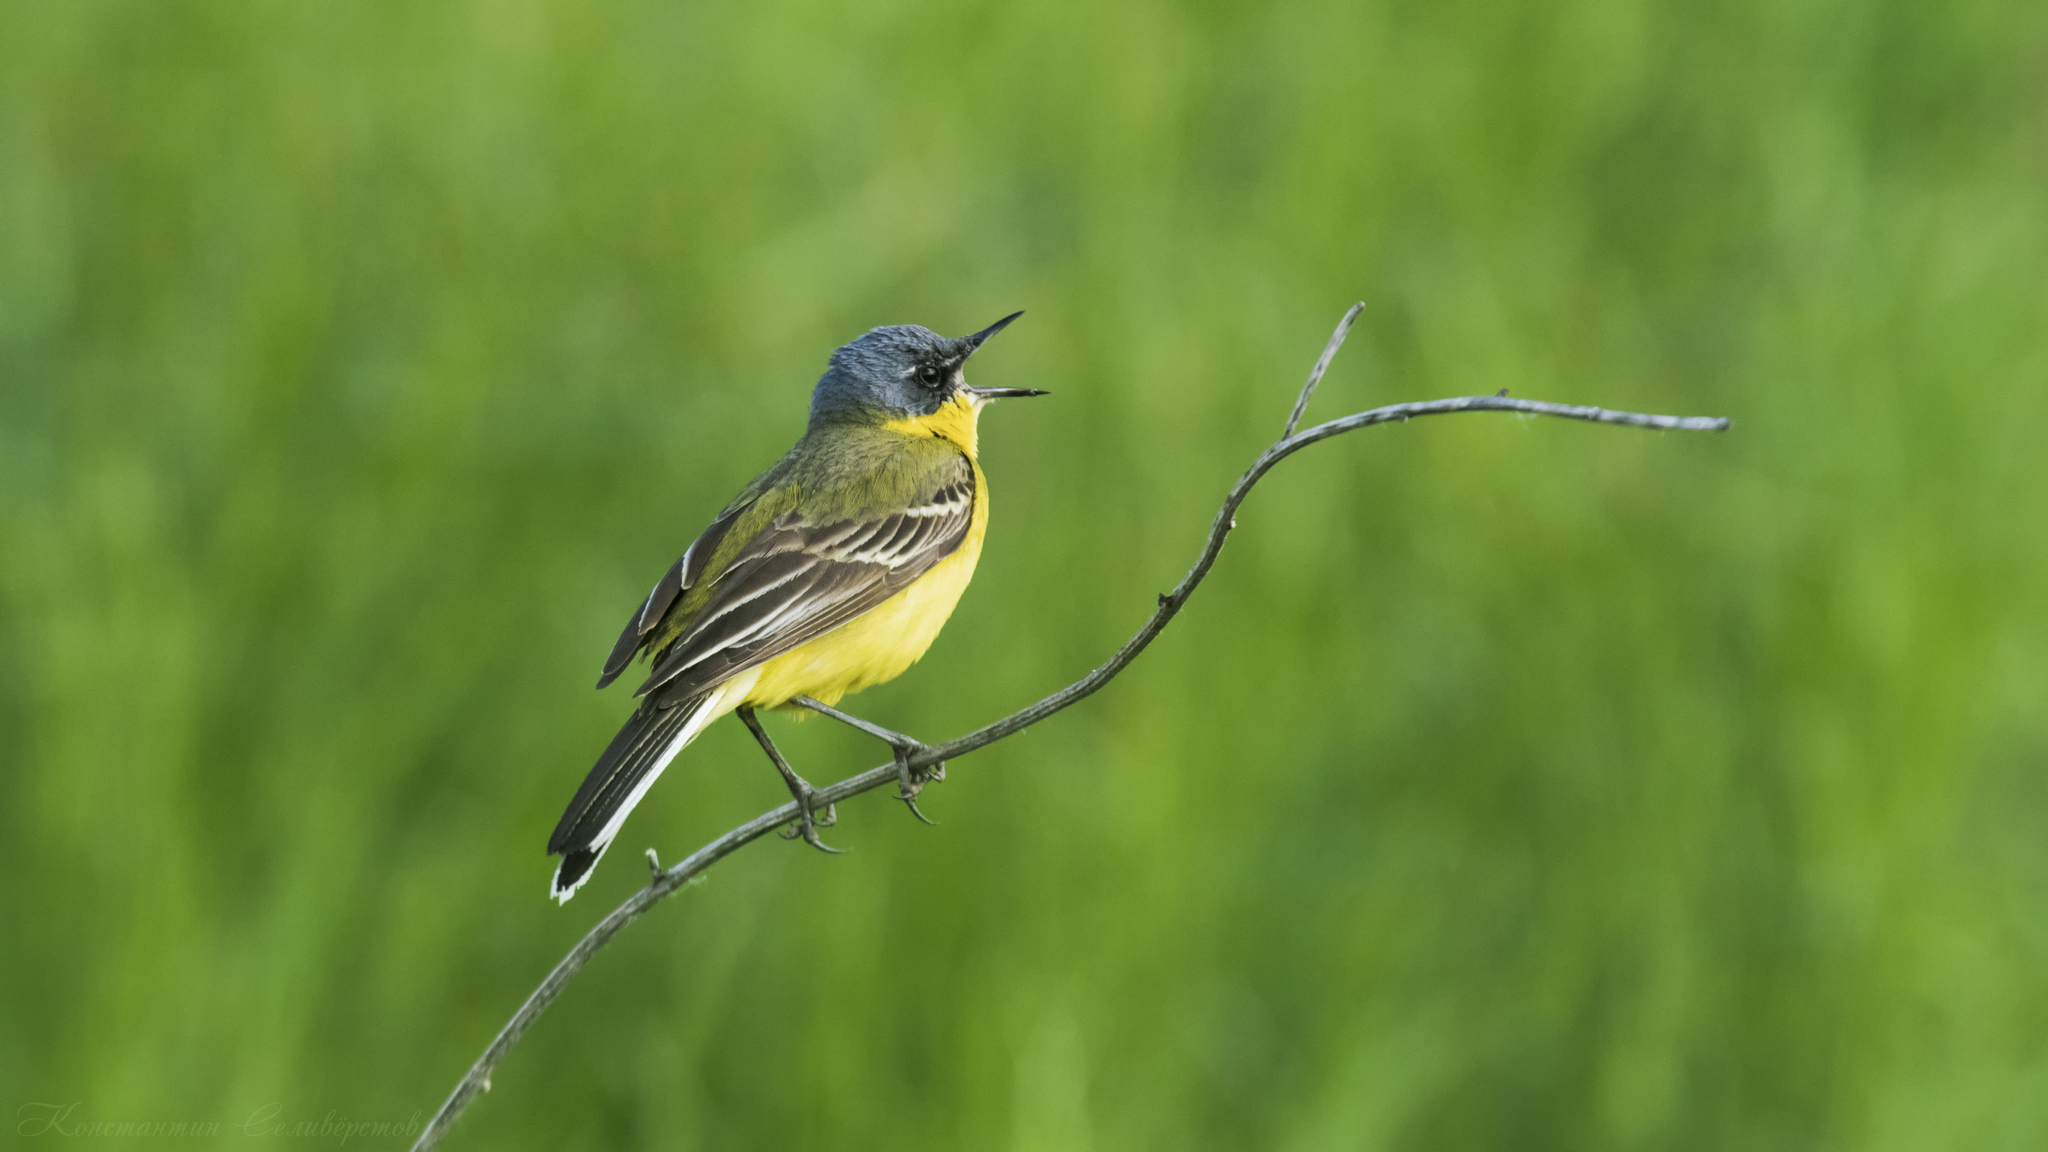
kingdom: Animalia
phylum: Chordata
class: Aves
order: Passeriformes
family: Motacillidae
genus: Motacilla
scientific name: Motacilla flava
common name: Western yellow wagtail
